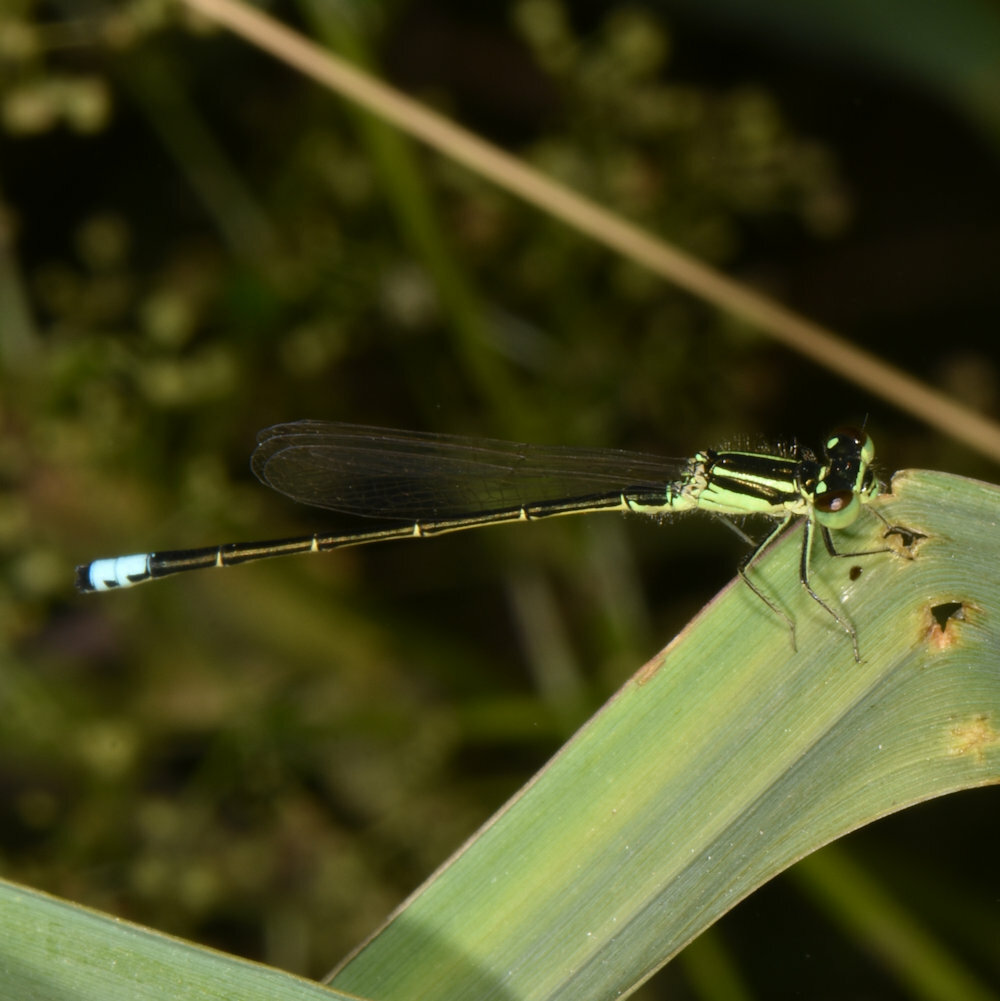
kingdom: Animalia
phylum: Arthropoda
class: Insecta
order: Odonata
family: Coenagrionidae
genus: Ischnura
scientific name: Ischnura verticalis
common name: Eastern forktail
